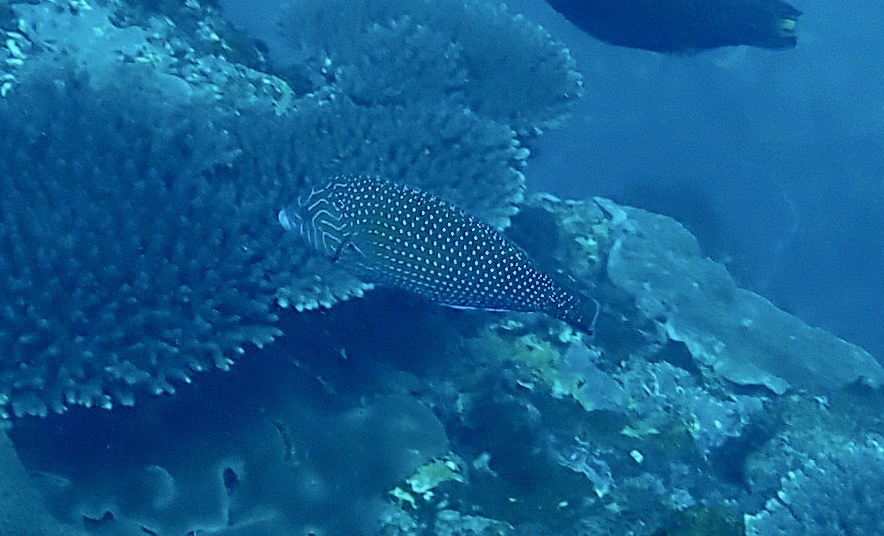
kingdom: Animalia
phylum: Chordata
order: Perciformes
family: Labridae
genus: Anampses
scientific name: Anampses caeruleopunctatus
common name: Bluespotted wrasse
